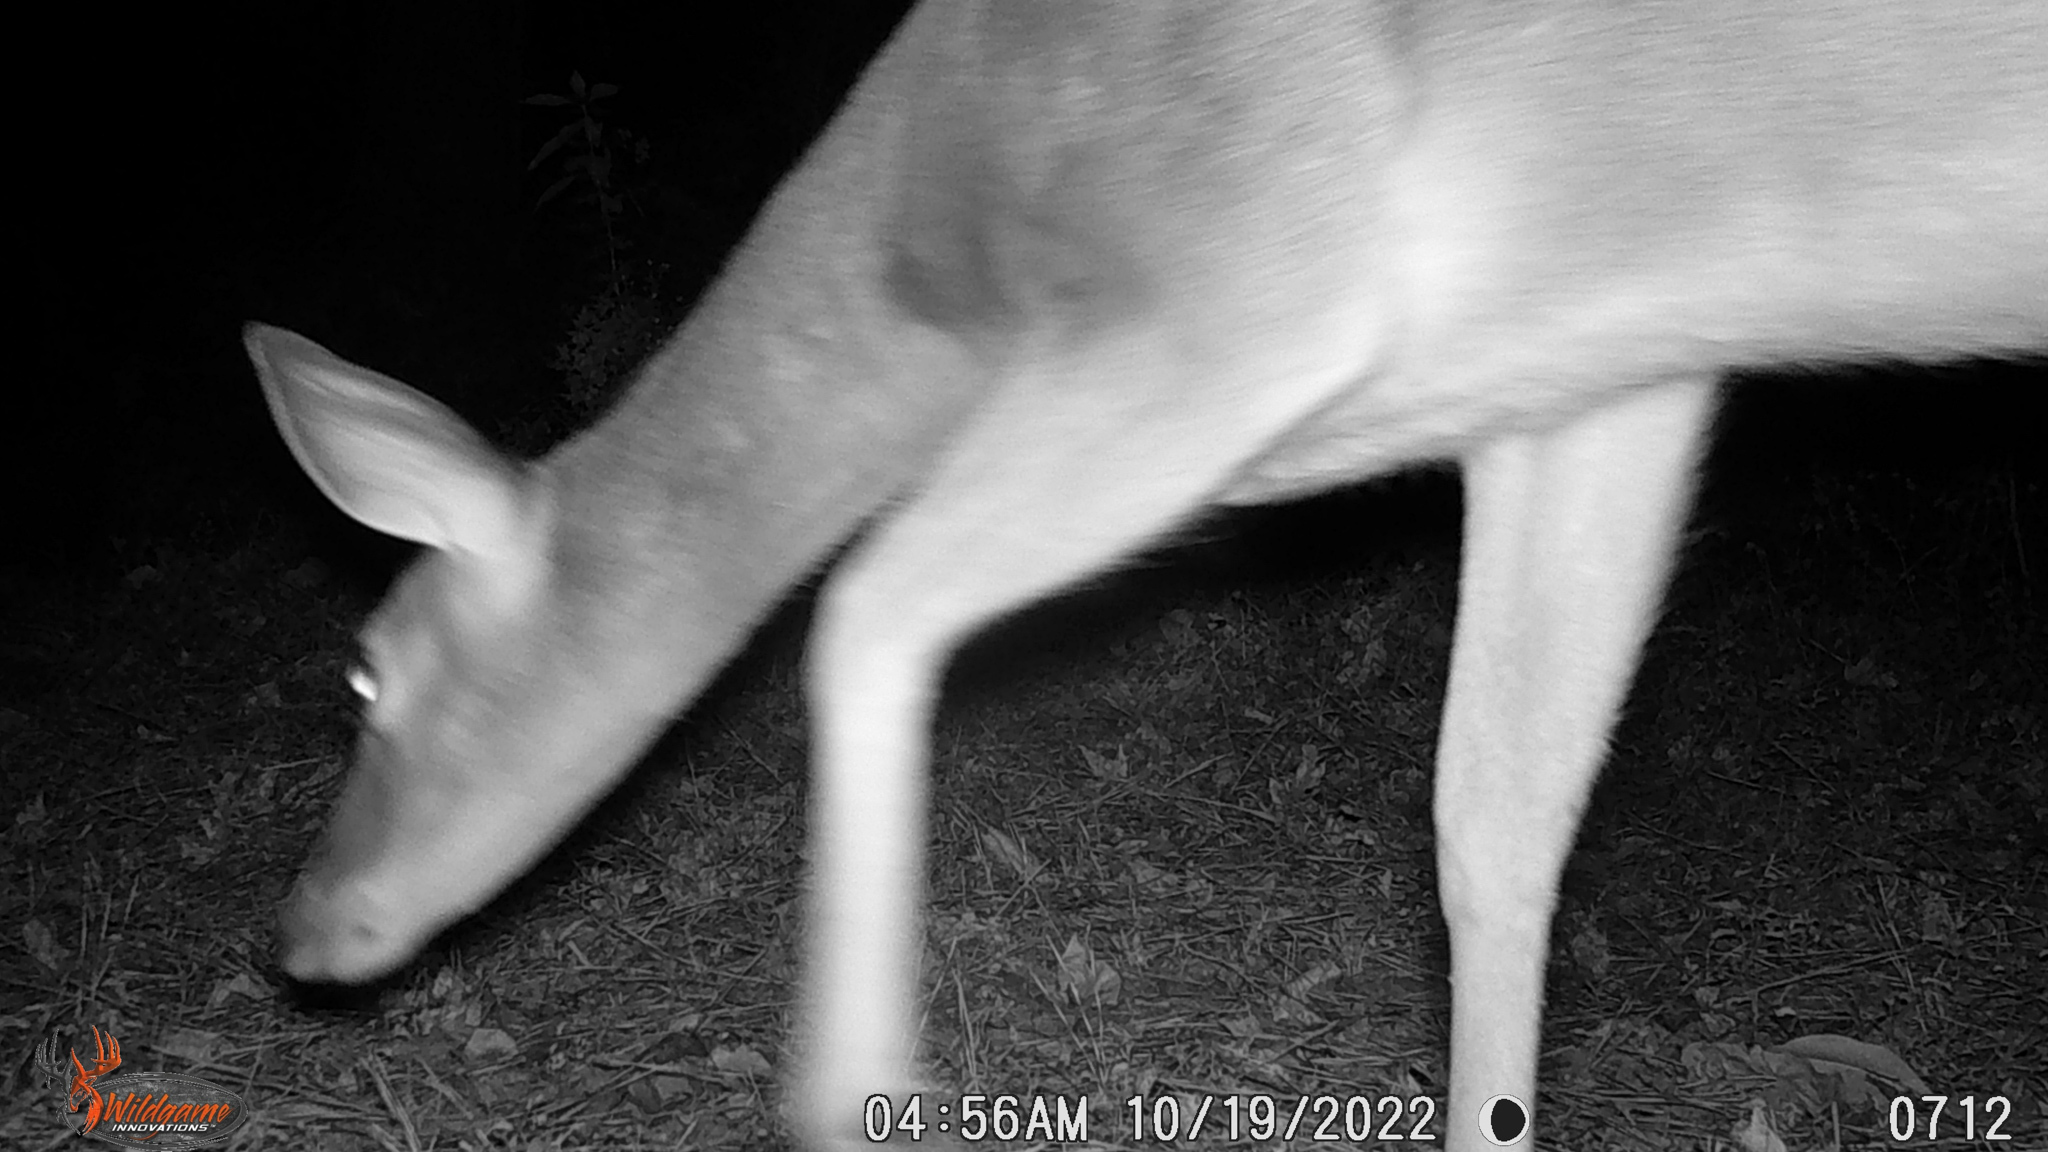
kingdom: Animalia
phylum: Chordata
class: Mammalia
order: Artiodactyla
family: Cervidae
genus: Odocoileus
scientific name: Odocoileus virginianus
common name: White-tailed deer
